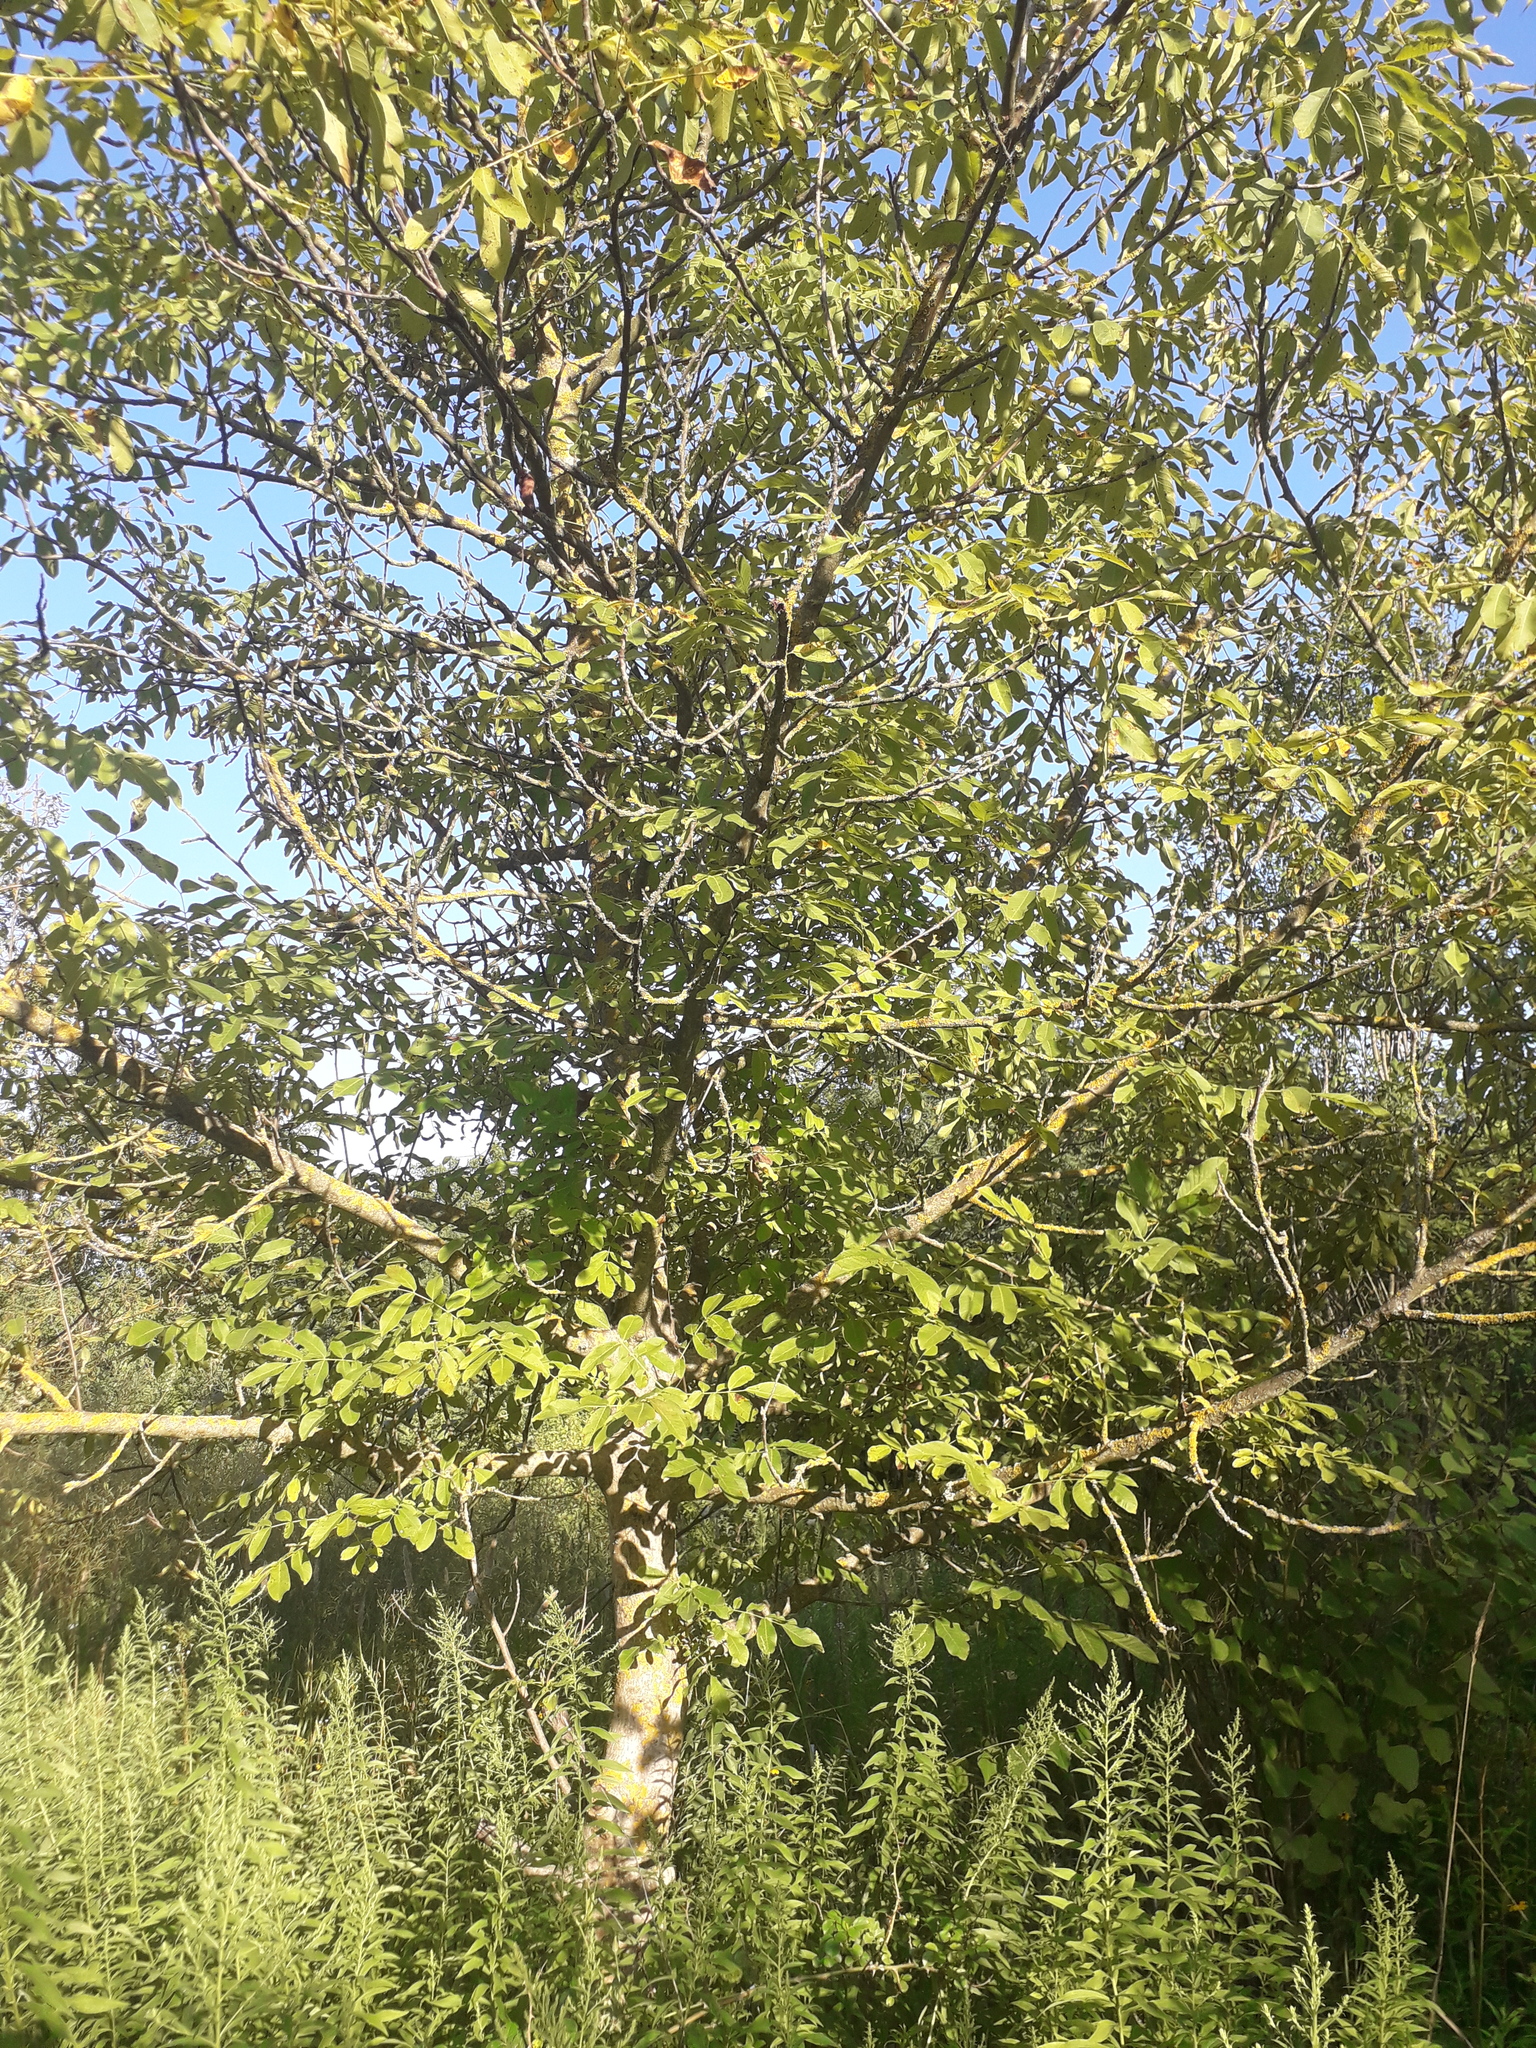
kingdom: Plantae
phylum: Tracheophyta
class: Magnoliopsida
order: Fagales
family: Juglandaceae
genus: Juglans
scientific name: Juglans regia
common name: Walnut
